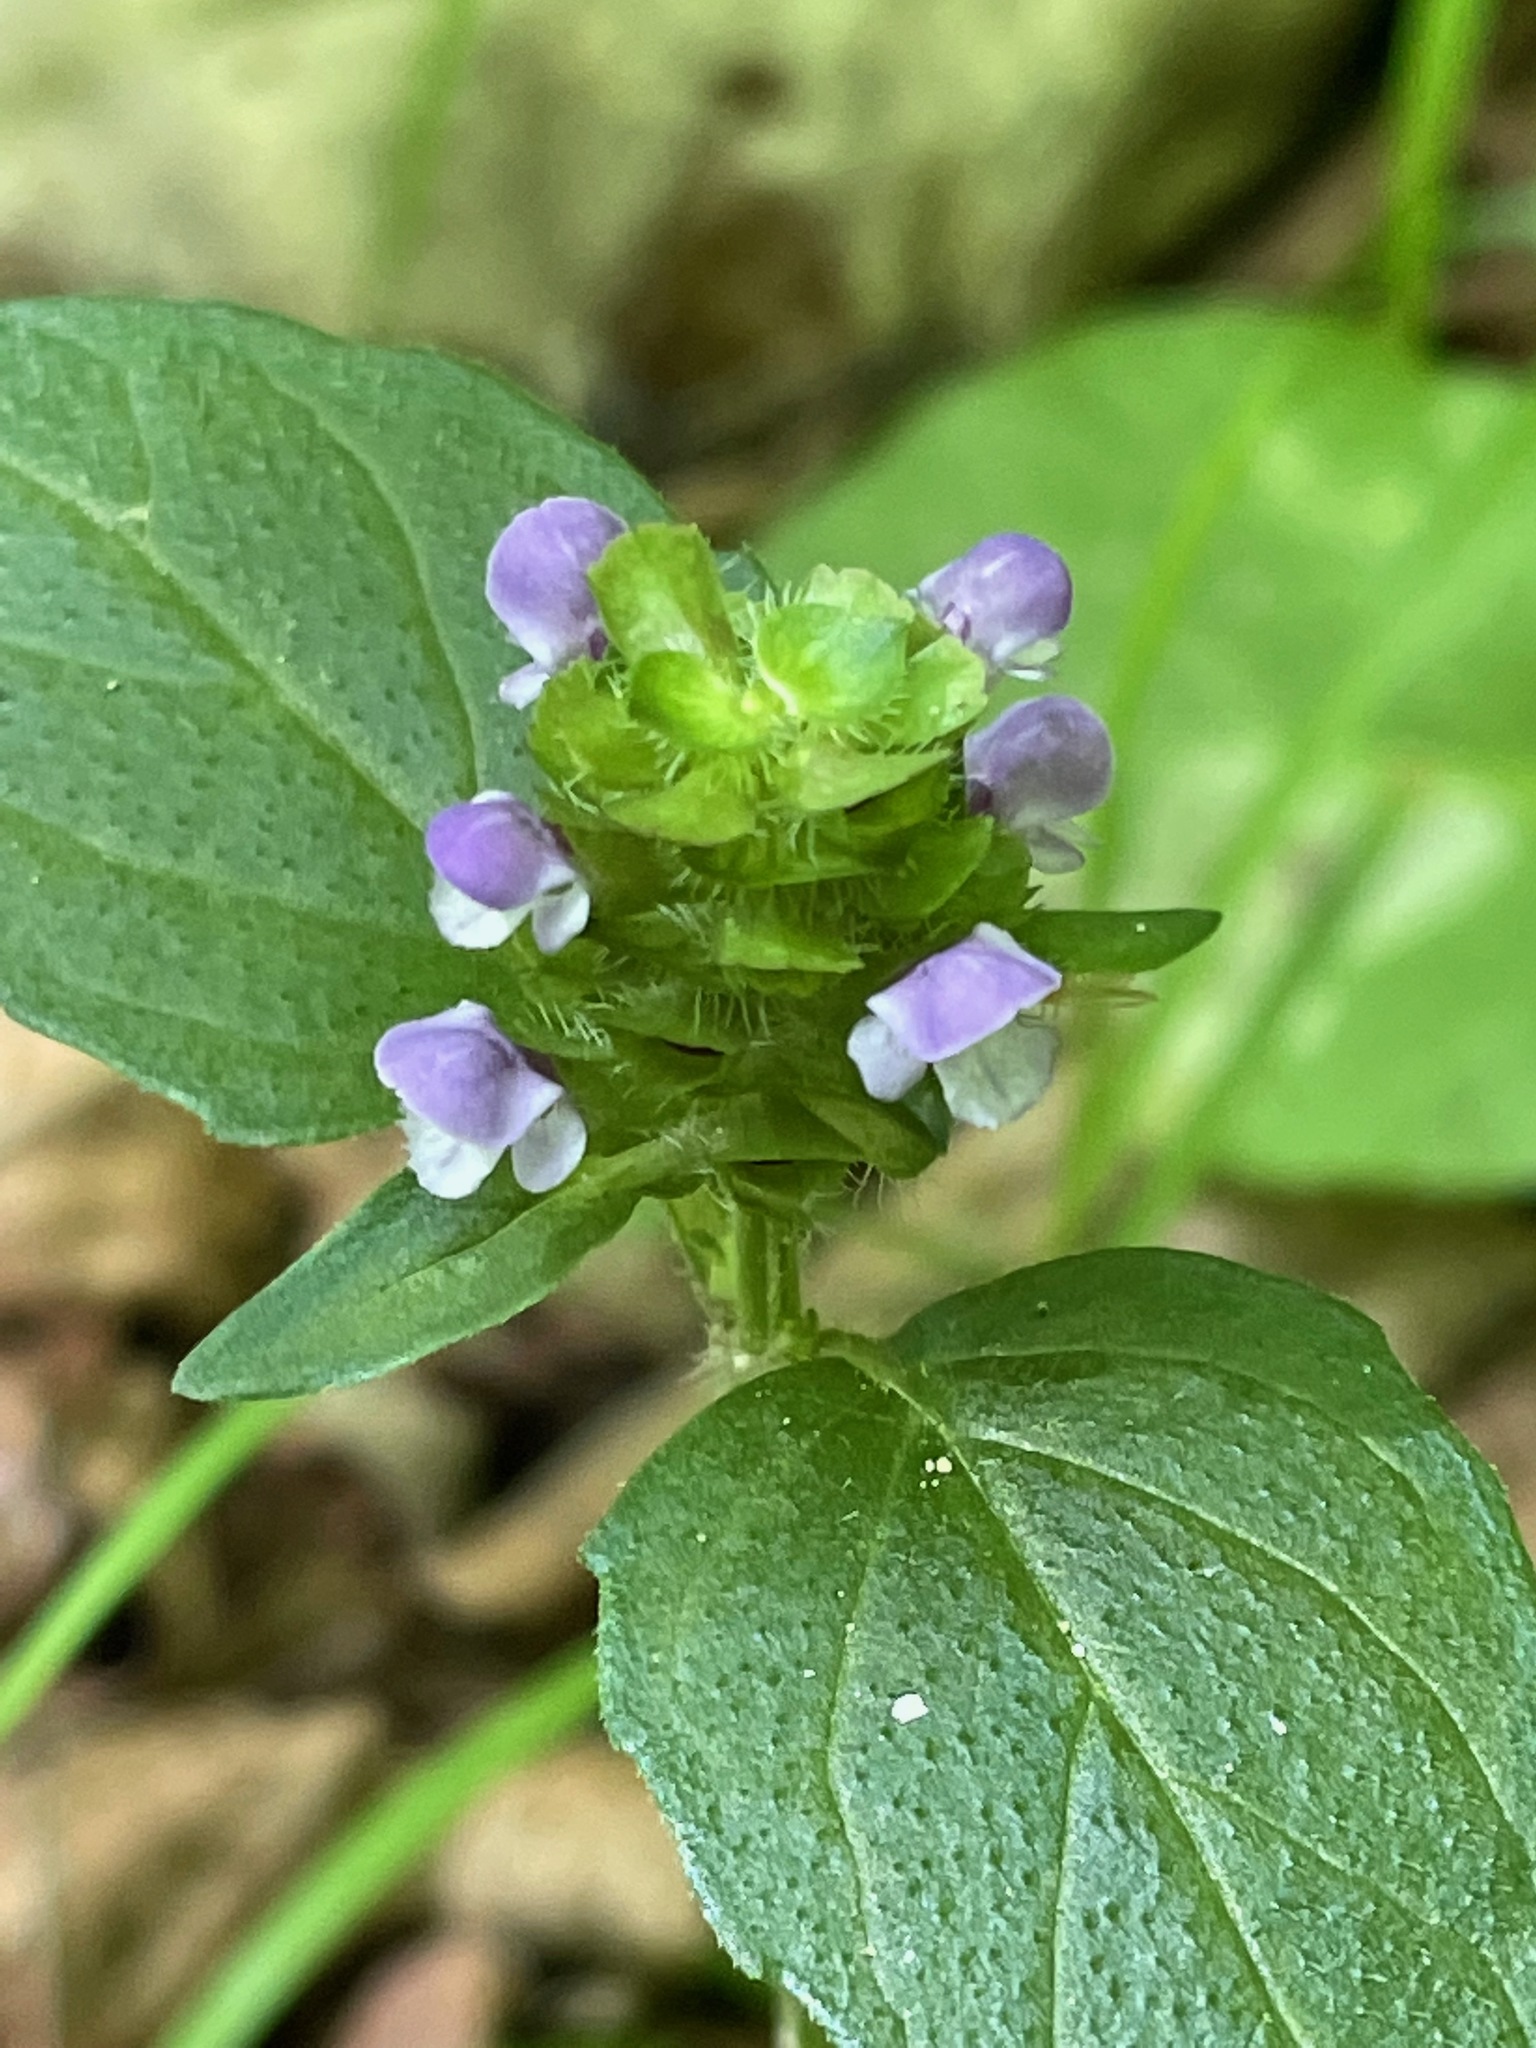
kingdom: Plantae
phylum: Tracheophyta
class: Magnoliopsida
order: Lamiales
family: Lamiaceae
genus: Prunella
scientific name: Prunella vulgaris
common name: Heal-all
